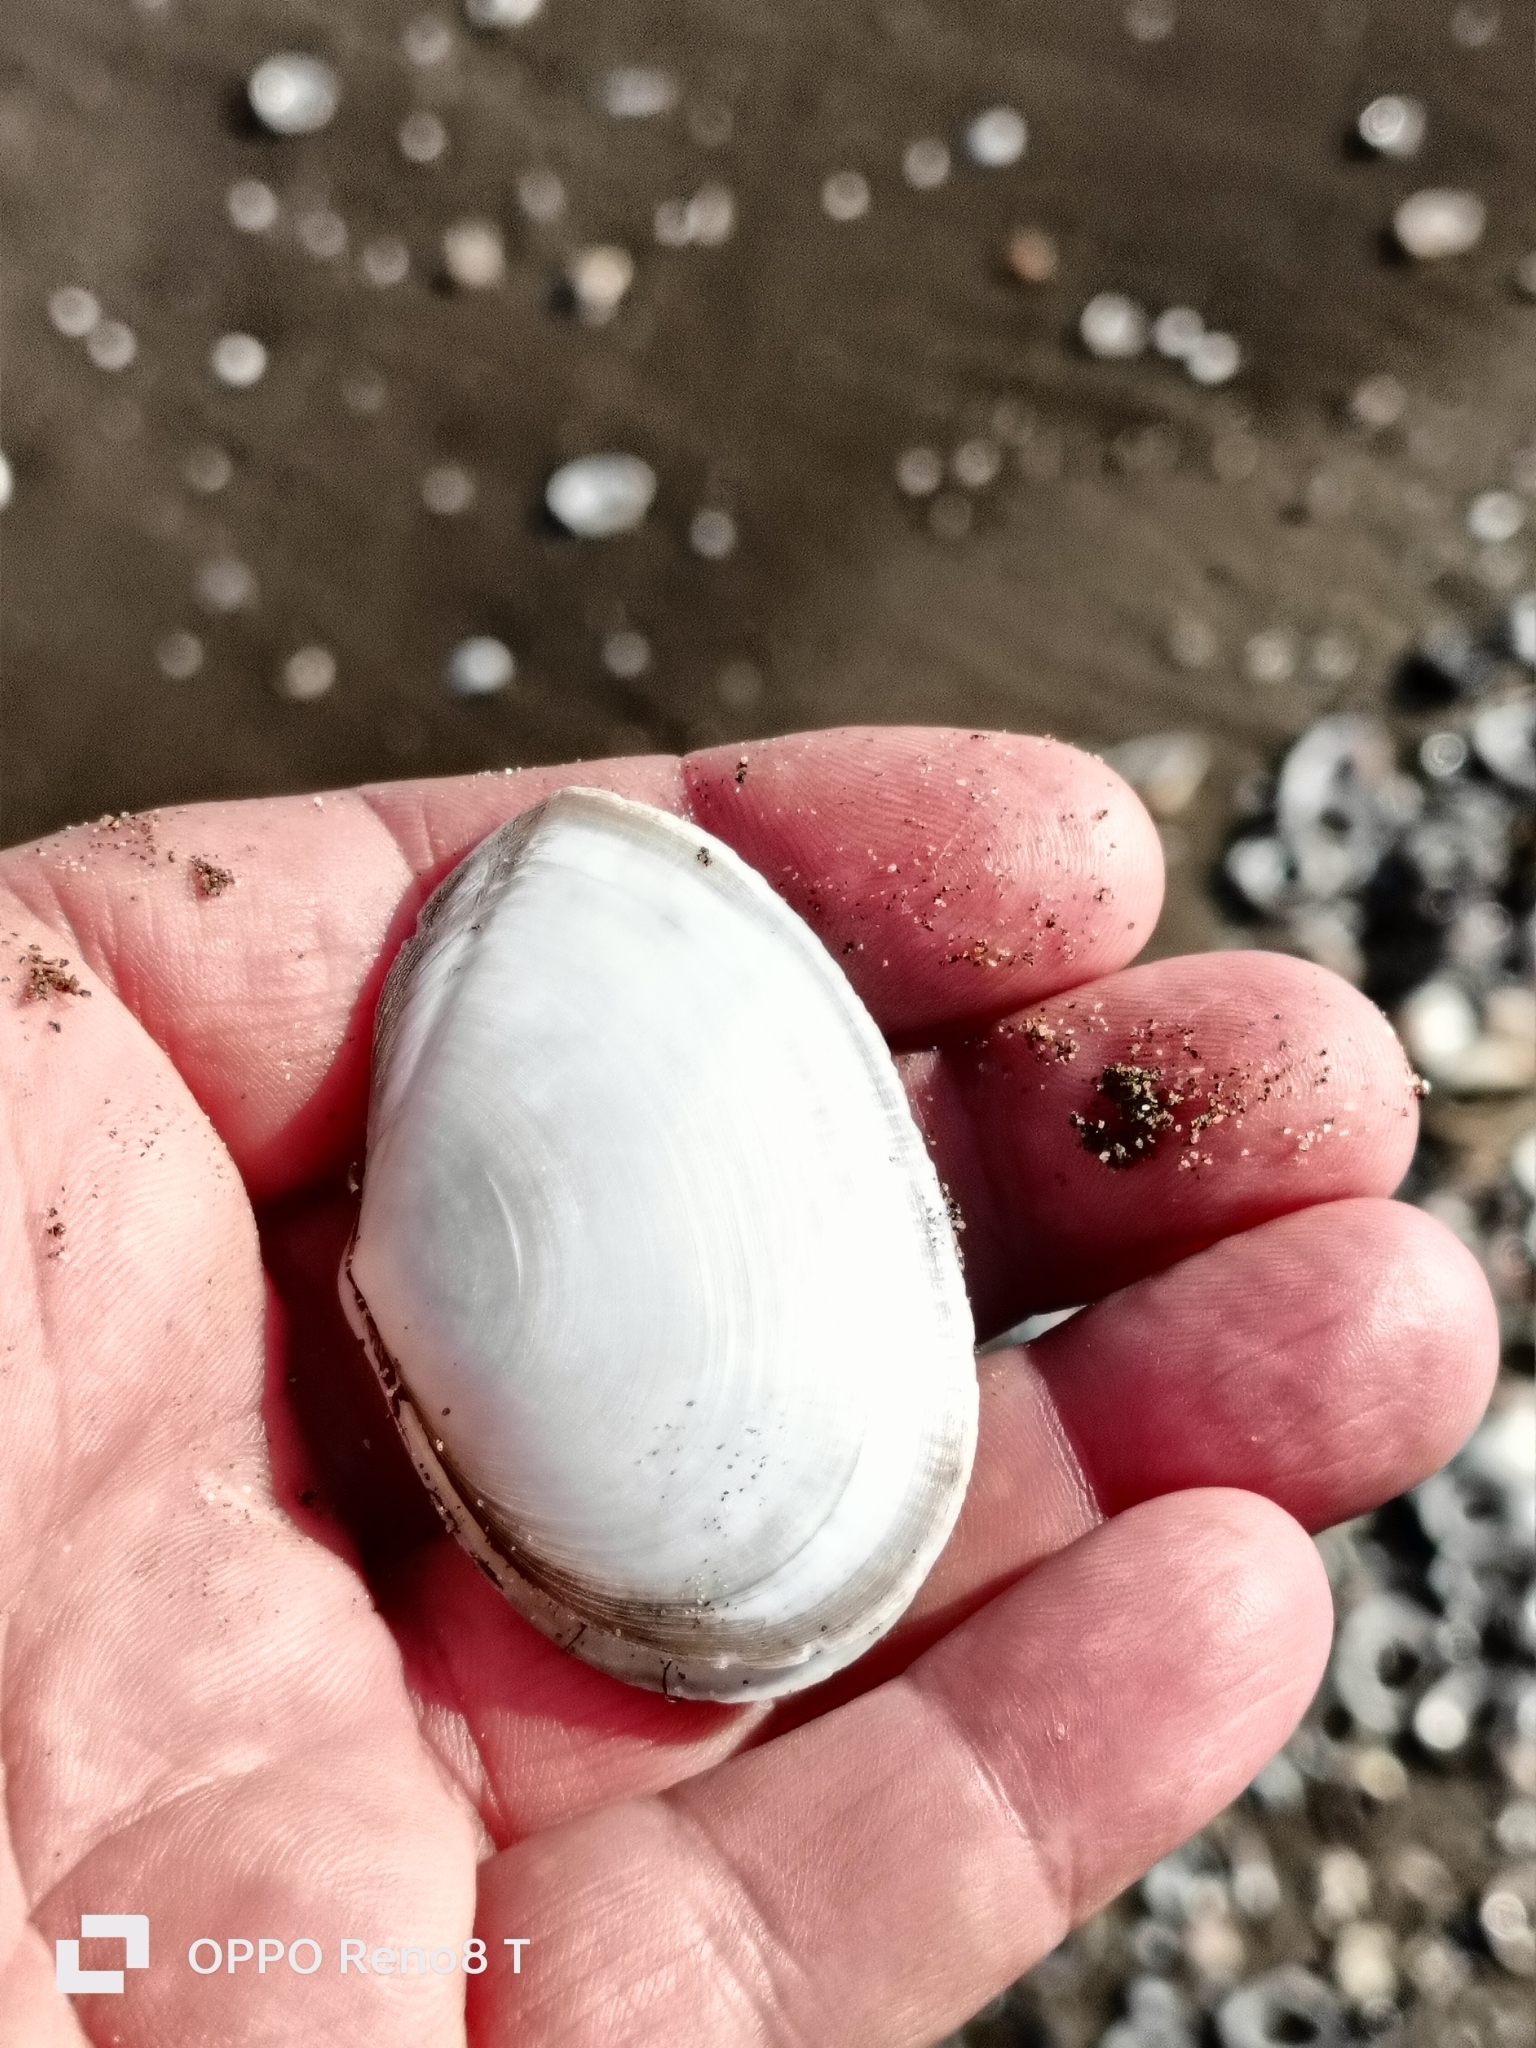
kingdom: Animalia
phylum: Mollusca
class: Bivalvia
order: Cardiida
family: Tellinidae
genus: Peronaea
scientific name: Peronaea planata
